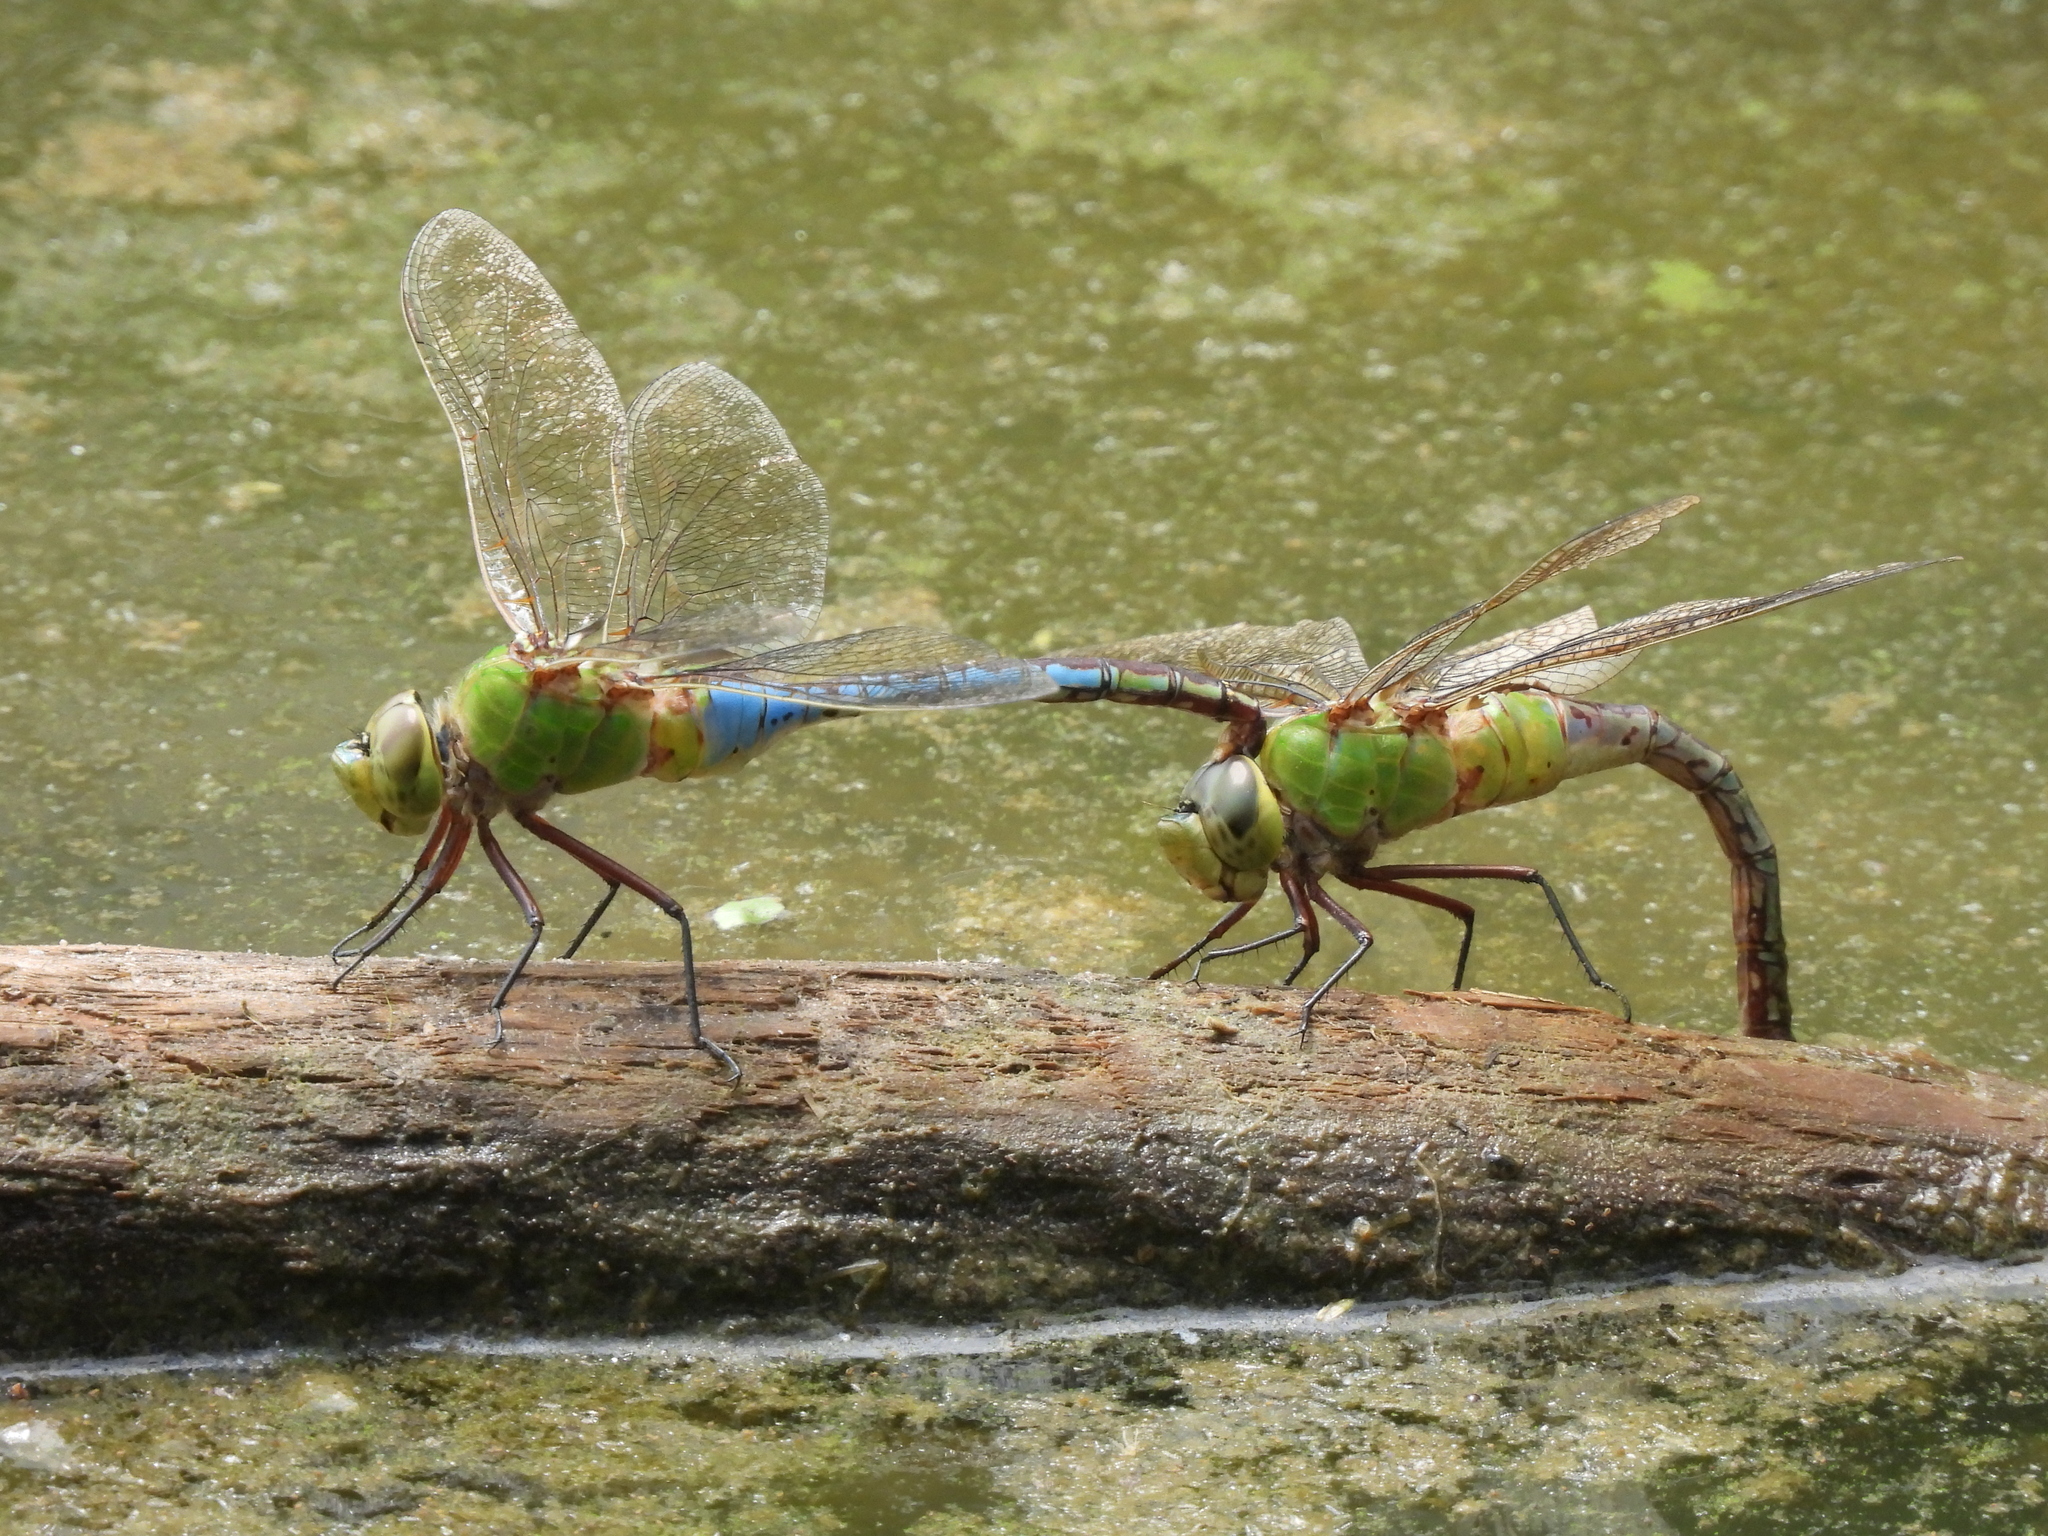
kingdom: Animalia
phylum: Arthropoda
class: Insecta
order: Odonata
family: Aeshnidae
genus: Anax
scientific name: Anax junius
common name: Common green darner
